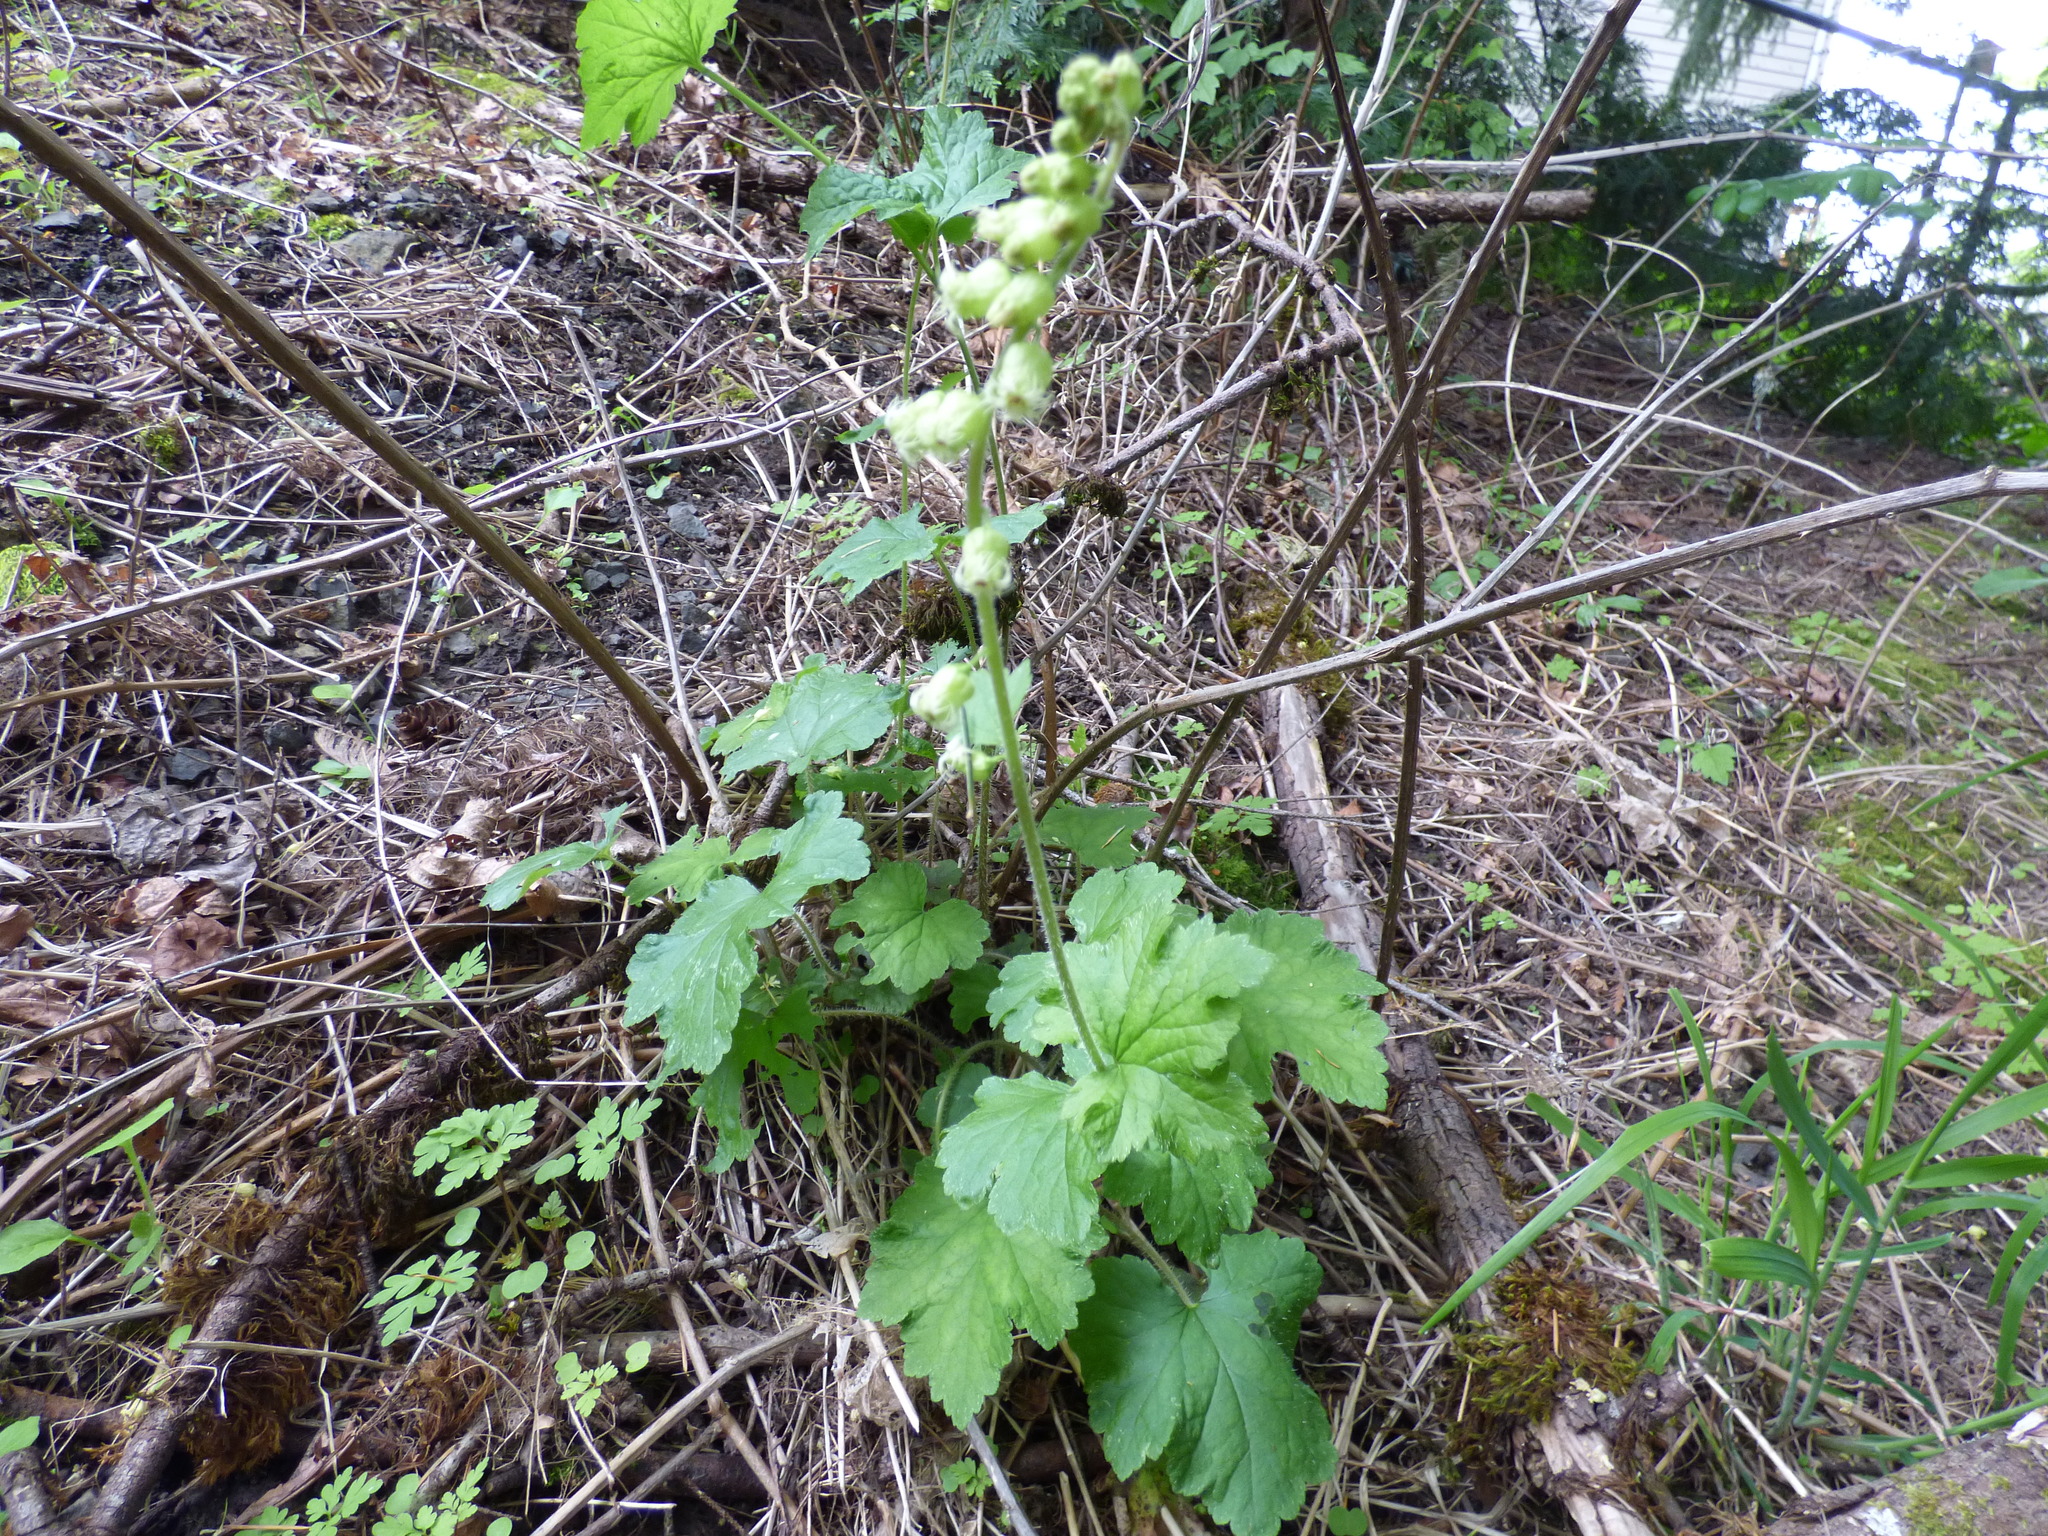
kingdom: Plantae
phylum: Tracheophyta
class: Magnoliopsida
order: Saxifragales
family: Saxifragaceae
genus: Tellima
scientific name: Tellima grandiflora
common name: Fringecups
